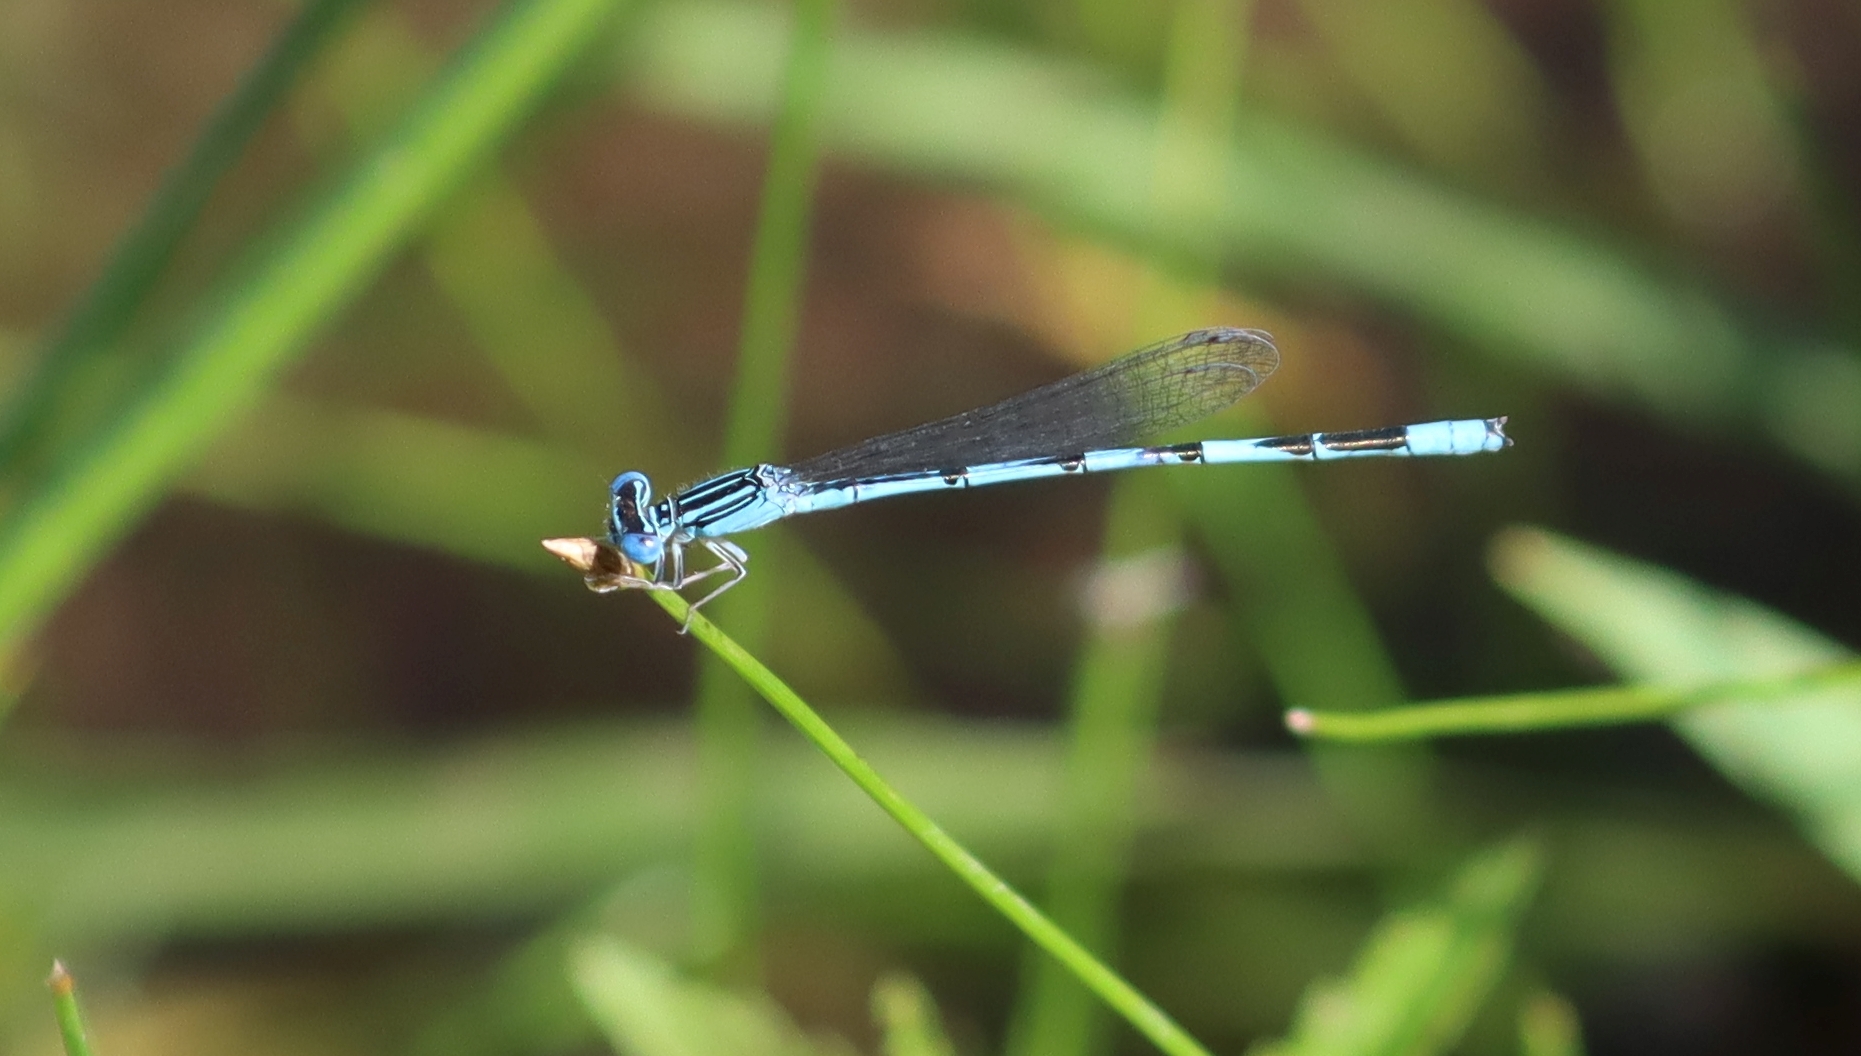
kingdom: Animalia
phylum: Arthropoda
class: Insecta
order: Odonata
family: Coenagrionidae
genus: Enallagma
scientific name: Enallagma basidens
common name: Double-striped bluet
